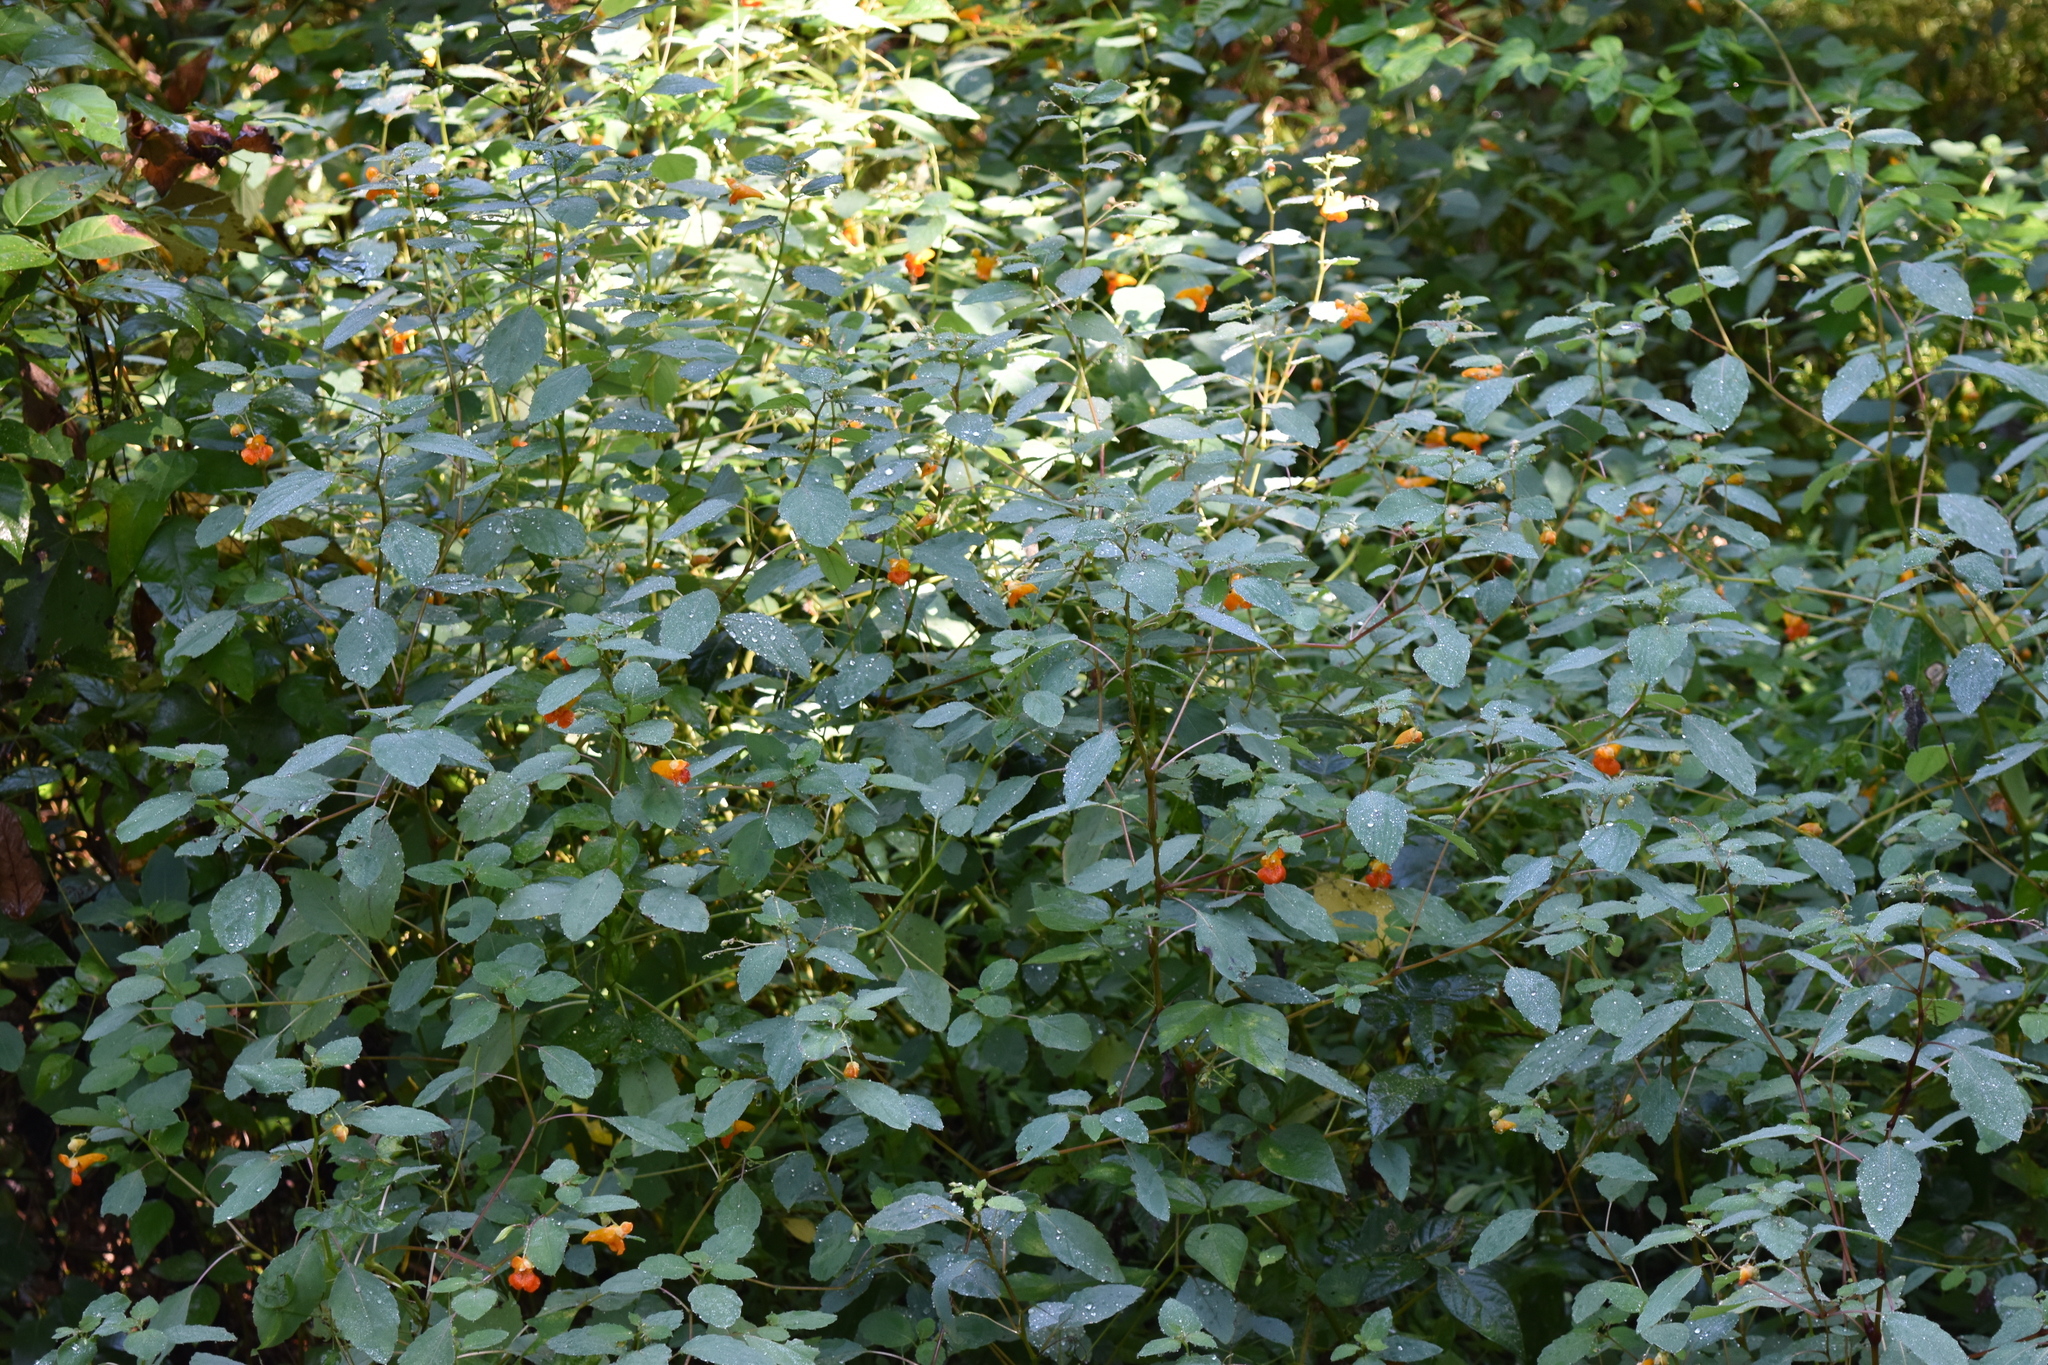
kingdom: Plantae
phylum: Tracheophyta
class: Magnoliopsida
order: Ericales
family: Balsaminaceae
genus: Impatiens
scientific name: Impatiens capensis
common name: Orange balsam
